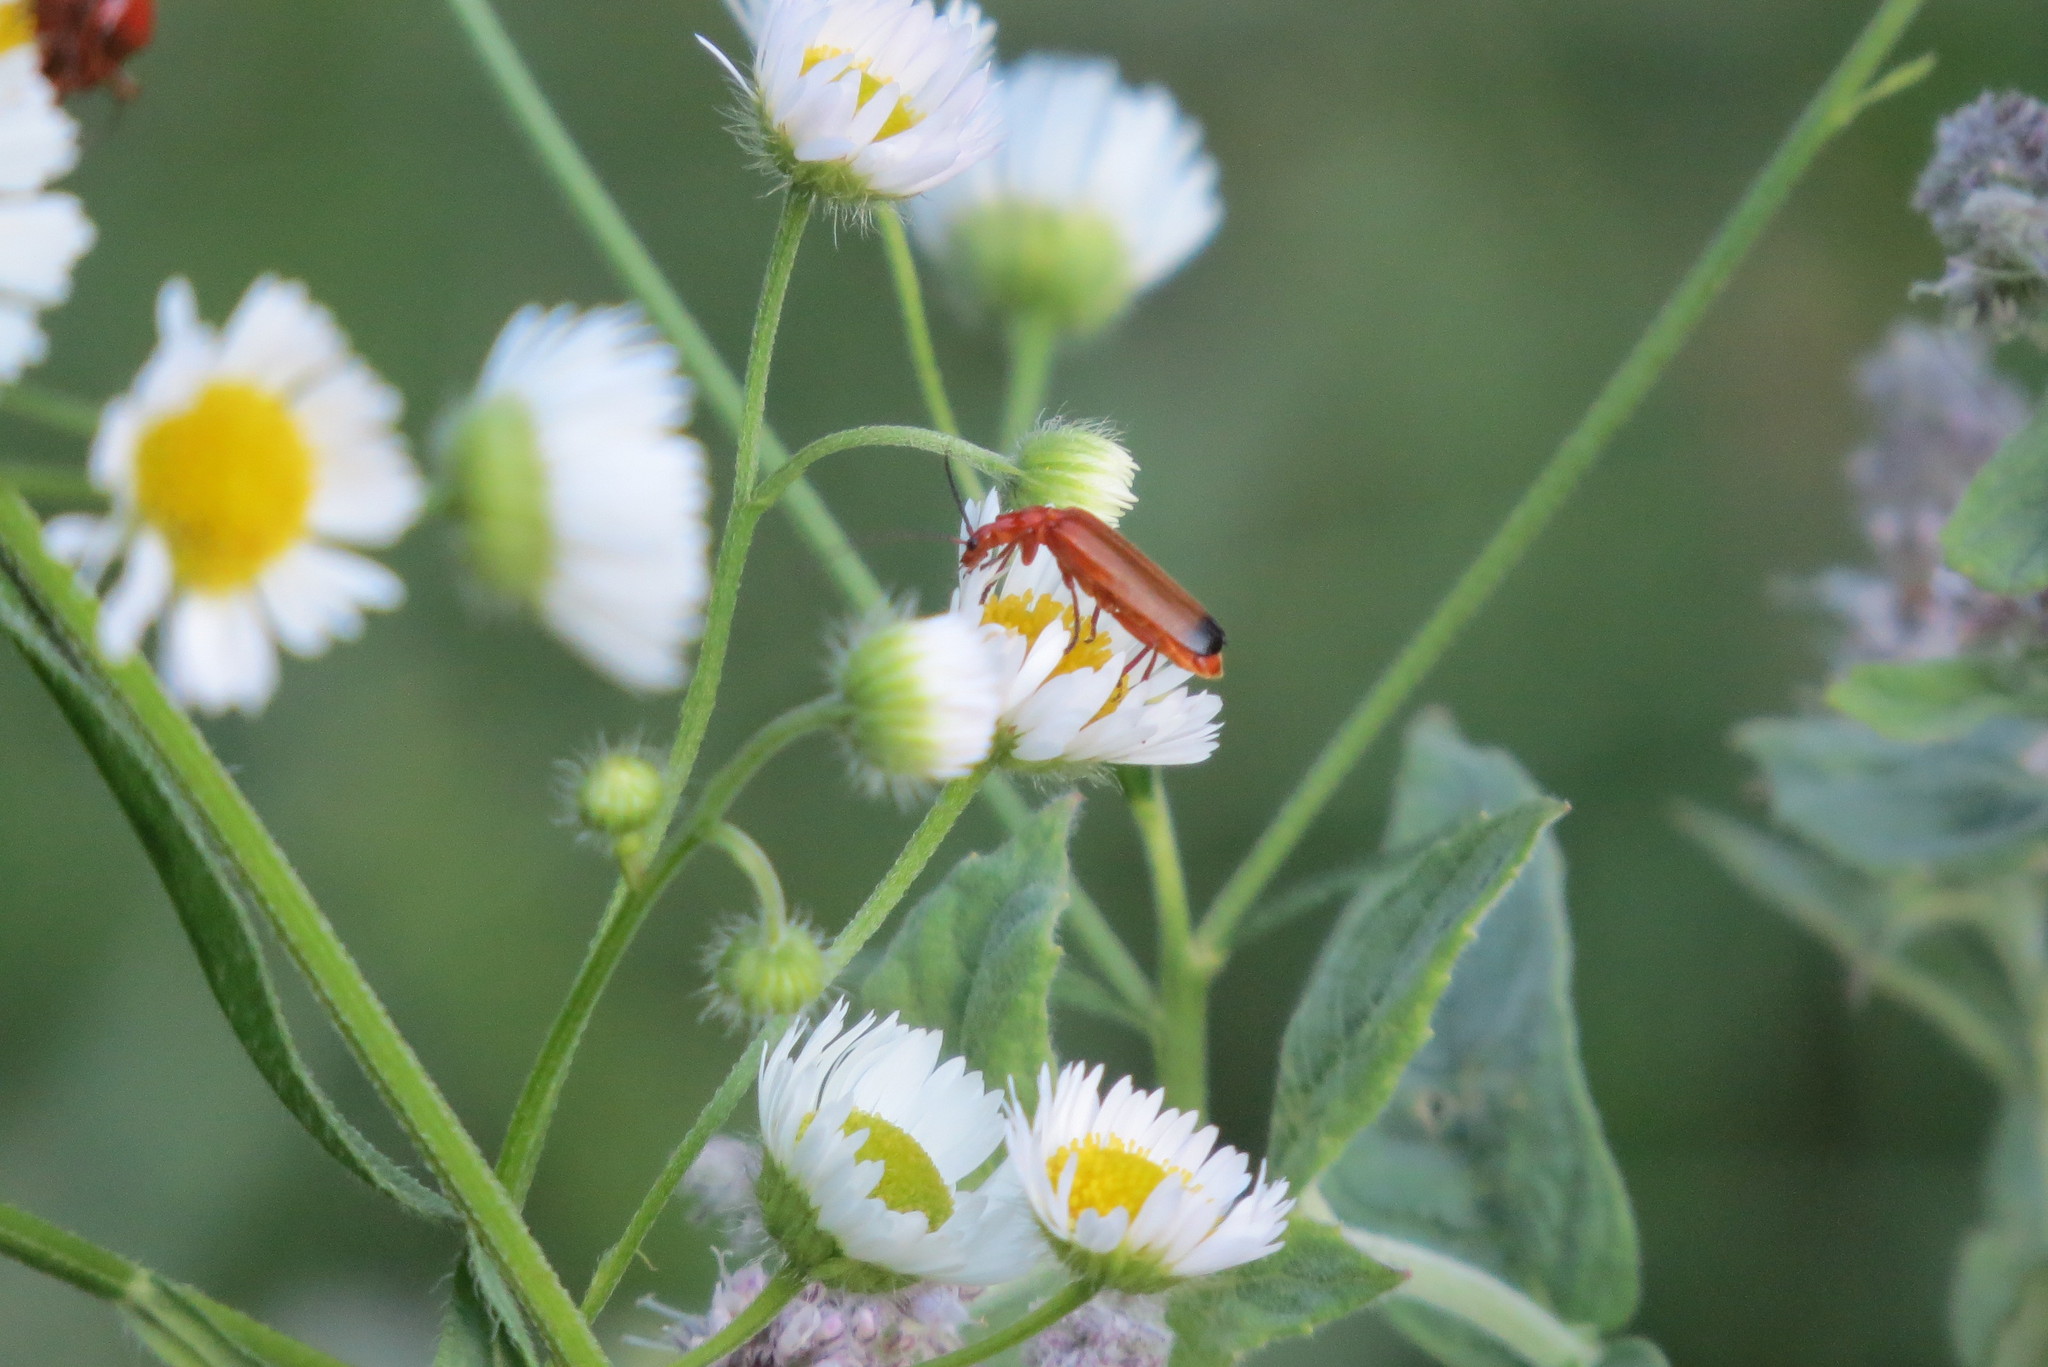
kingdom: Animalia
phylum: Arthropoda
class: Insecta
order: Coleoptera
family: Cantharidae
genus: Rhagonycha
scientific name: Rhagonycha fulva
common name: Common red soldier beetle
